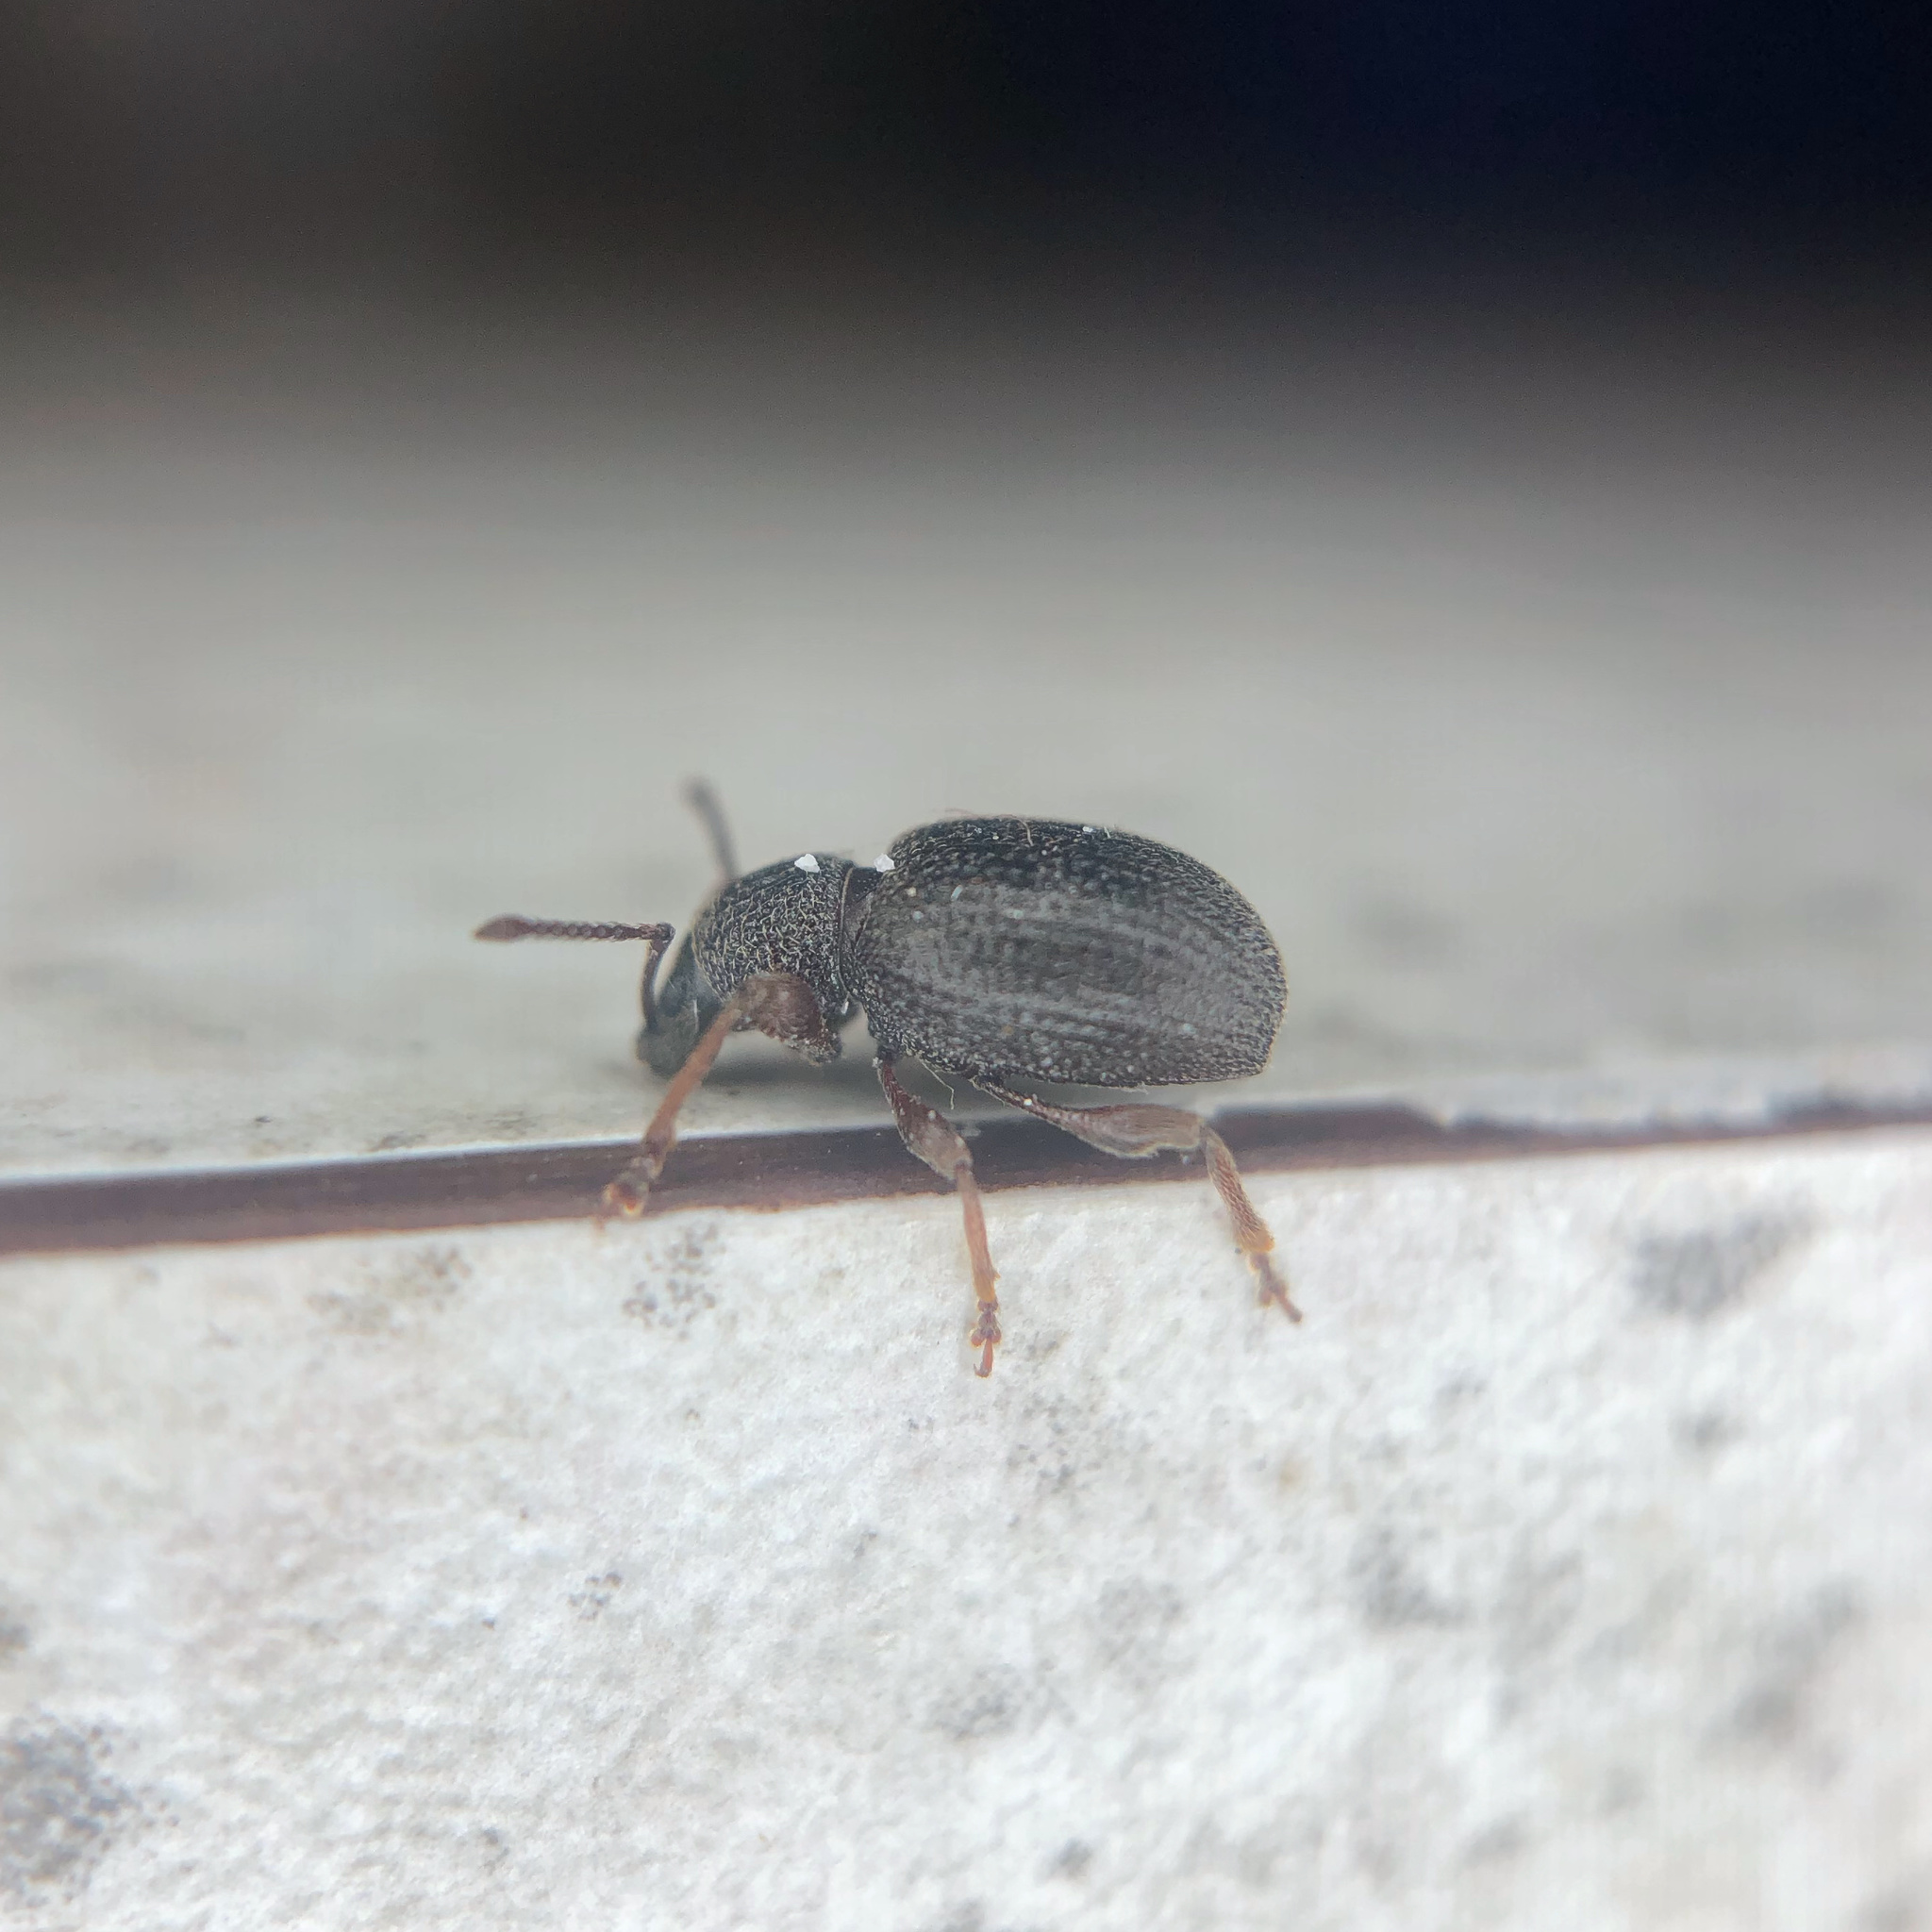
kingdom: Animalia
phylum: Arthropoda
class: Insecta
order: Coleoptera
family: Curculionidae
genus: Otiorhynchus
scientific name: Otiorhynchus ovatus
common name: Strawberry root weevil
